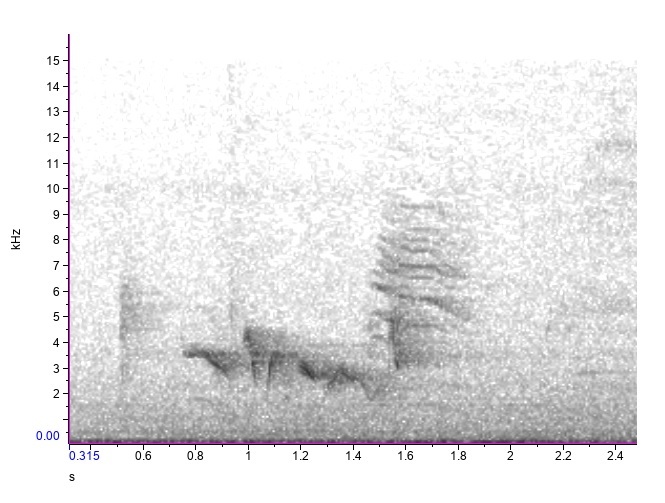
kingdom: Animalia
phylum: Chordata
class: Aves
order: Passeriformes
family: Vireonidae
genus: Vireo
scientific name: Vireo griseus
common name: White-eyed vireo
